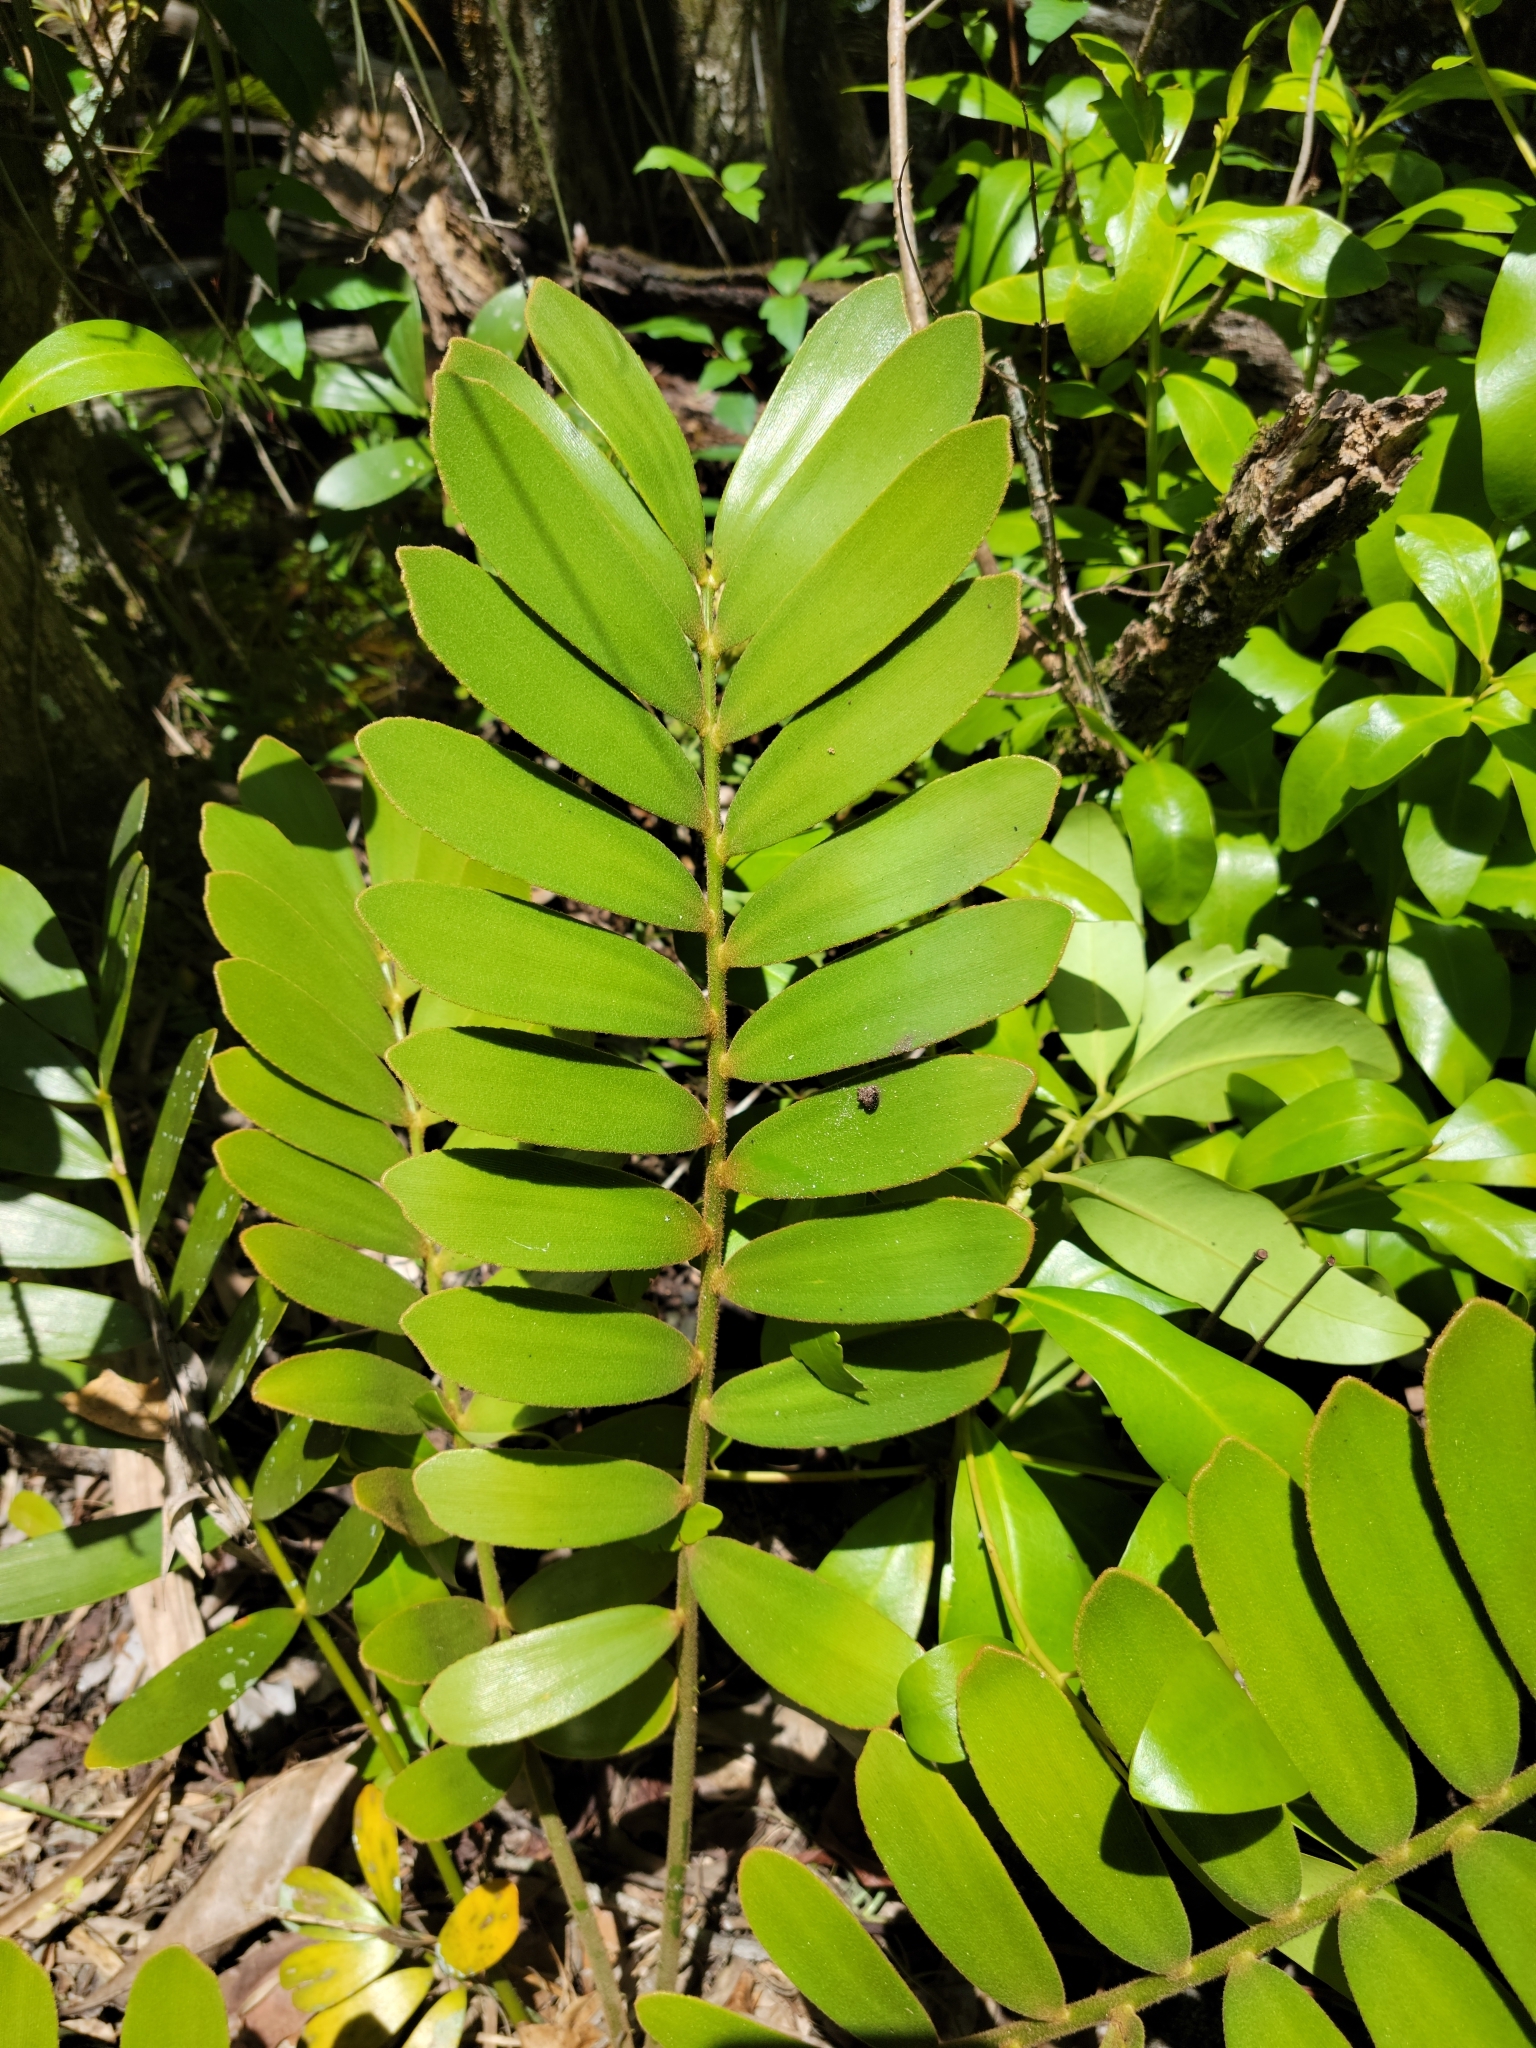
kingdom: Plantae
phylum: Tracheophyta
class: Cycadopsida
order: Cycadales
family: Zamiaceae
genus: Zamia
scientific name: Zamia furfuracea
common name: Cardboard palm
